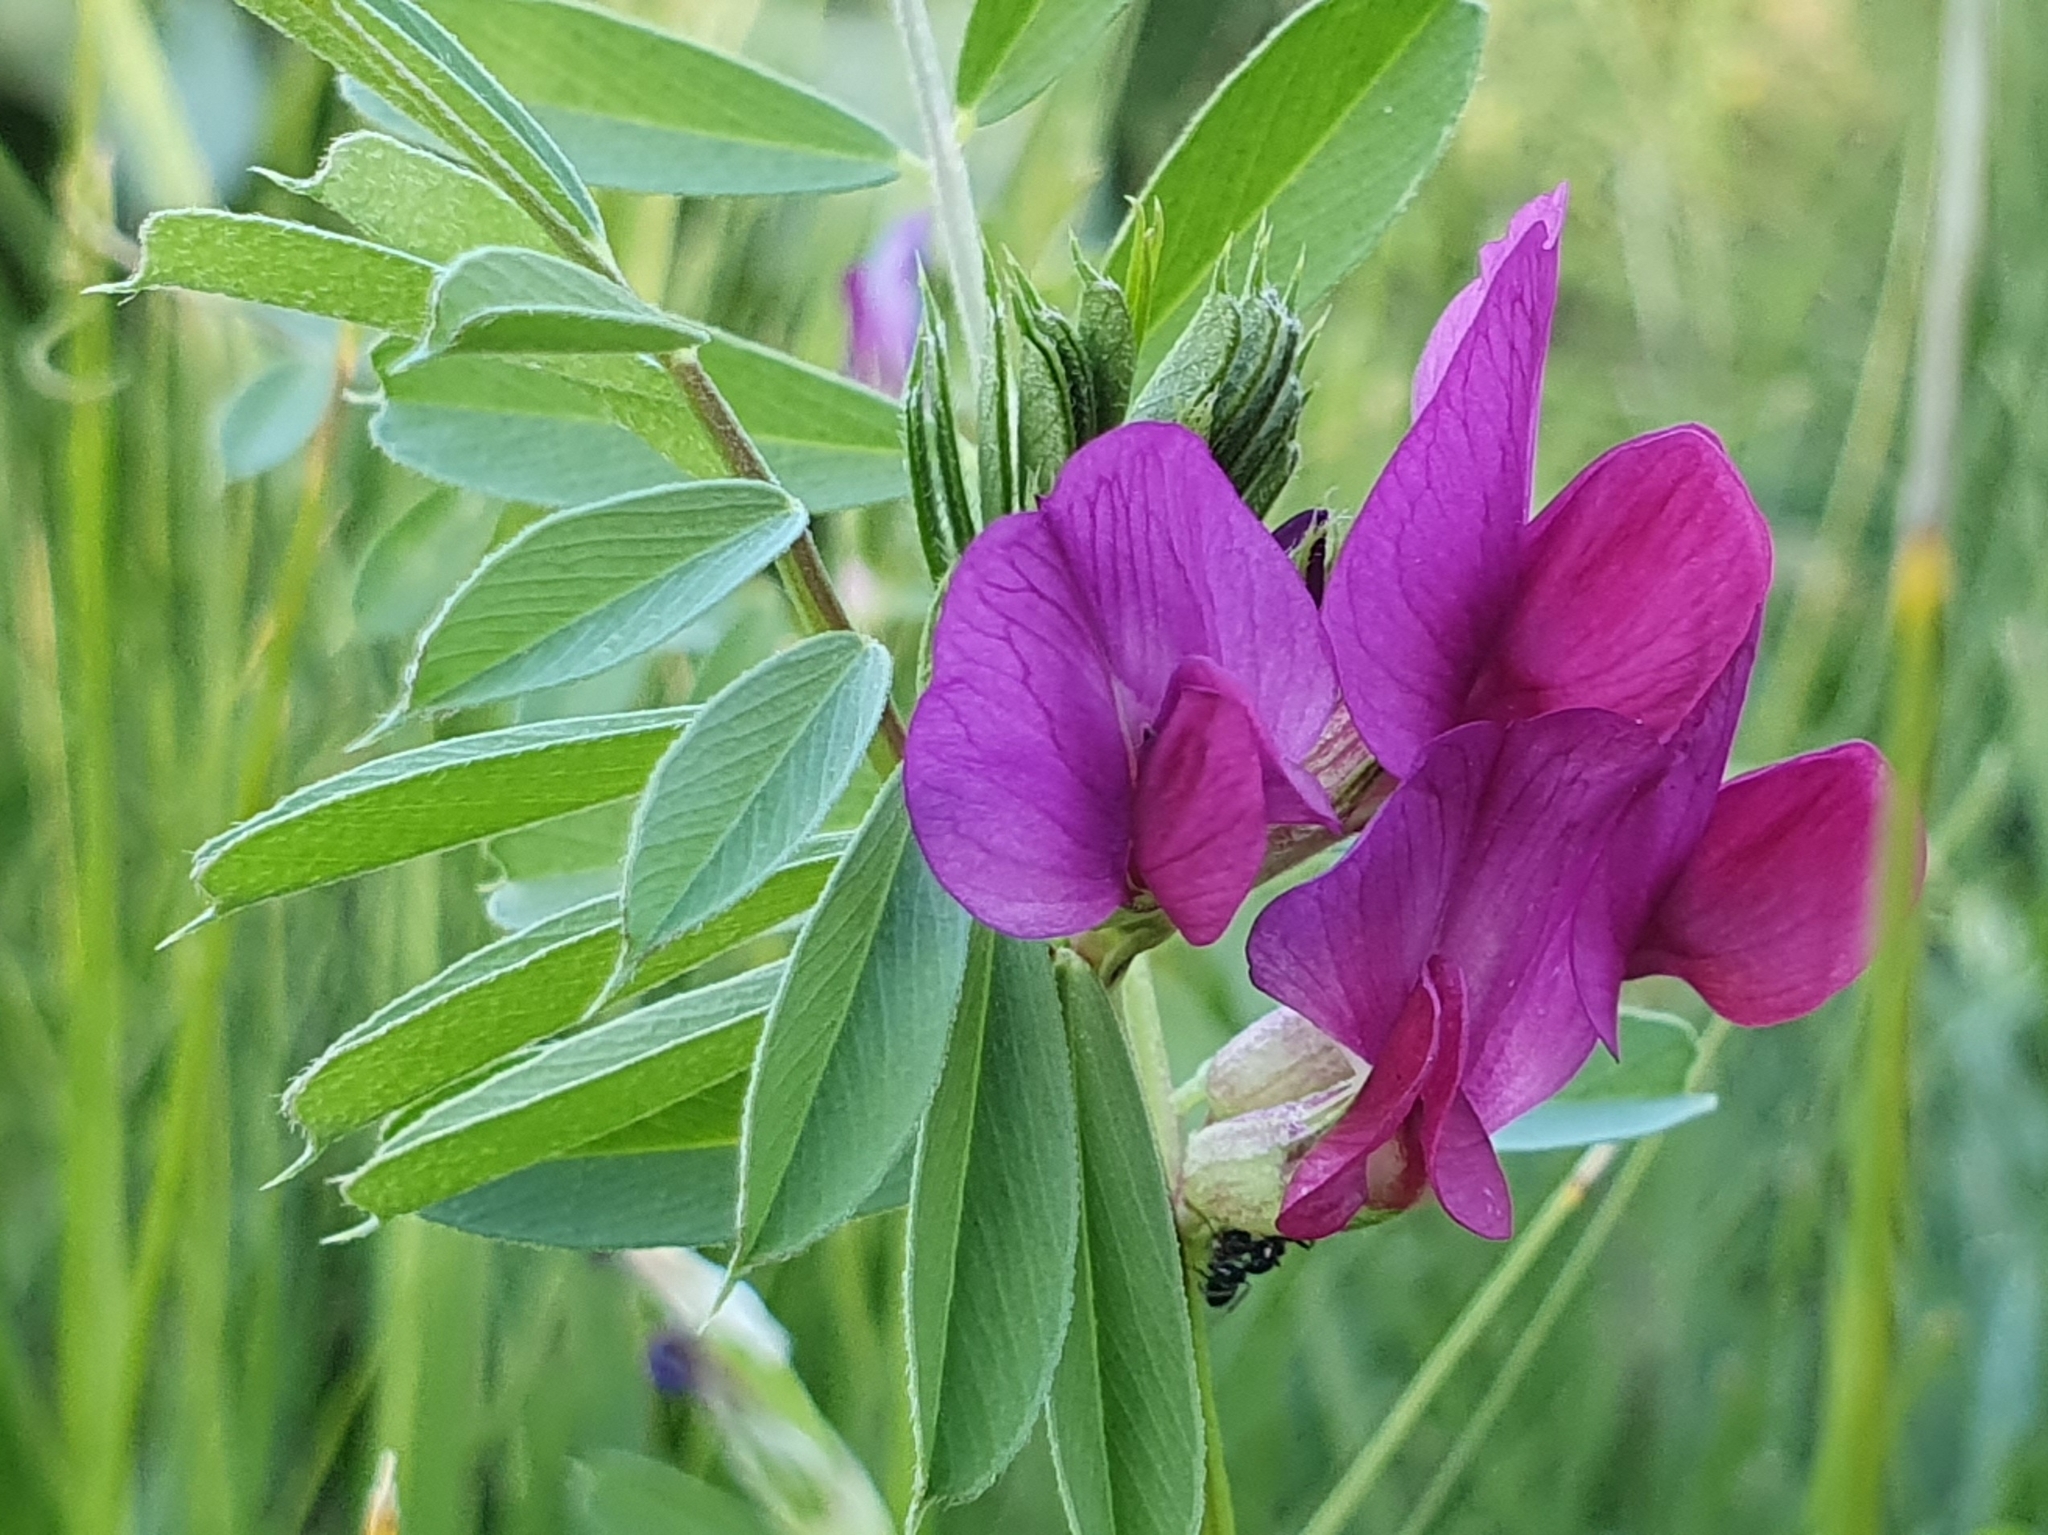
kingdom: Plantae
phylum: Tracheophyta
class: Magnoliopsida
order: Fabales
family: Fabaceae
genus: Vicia
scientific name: Vicia sativa
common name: Garden vetch
